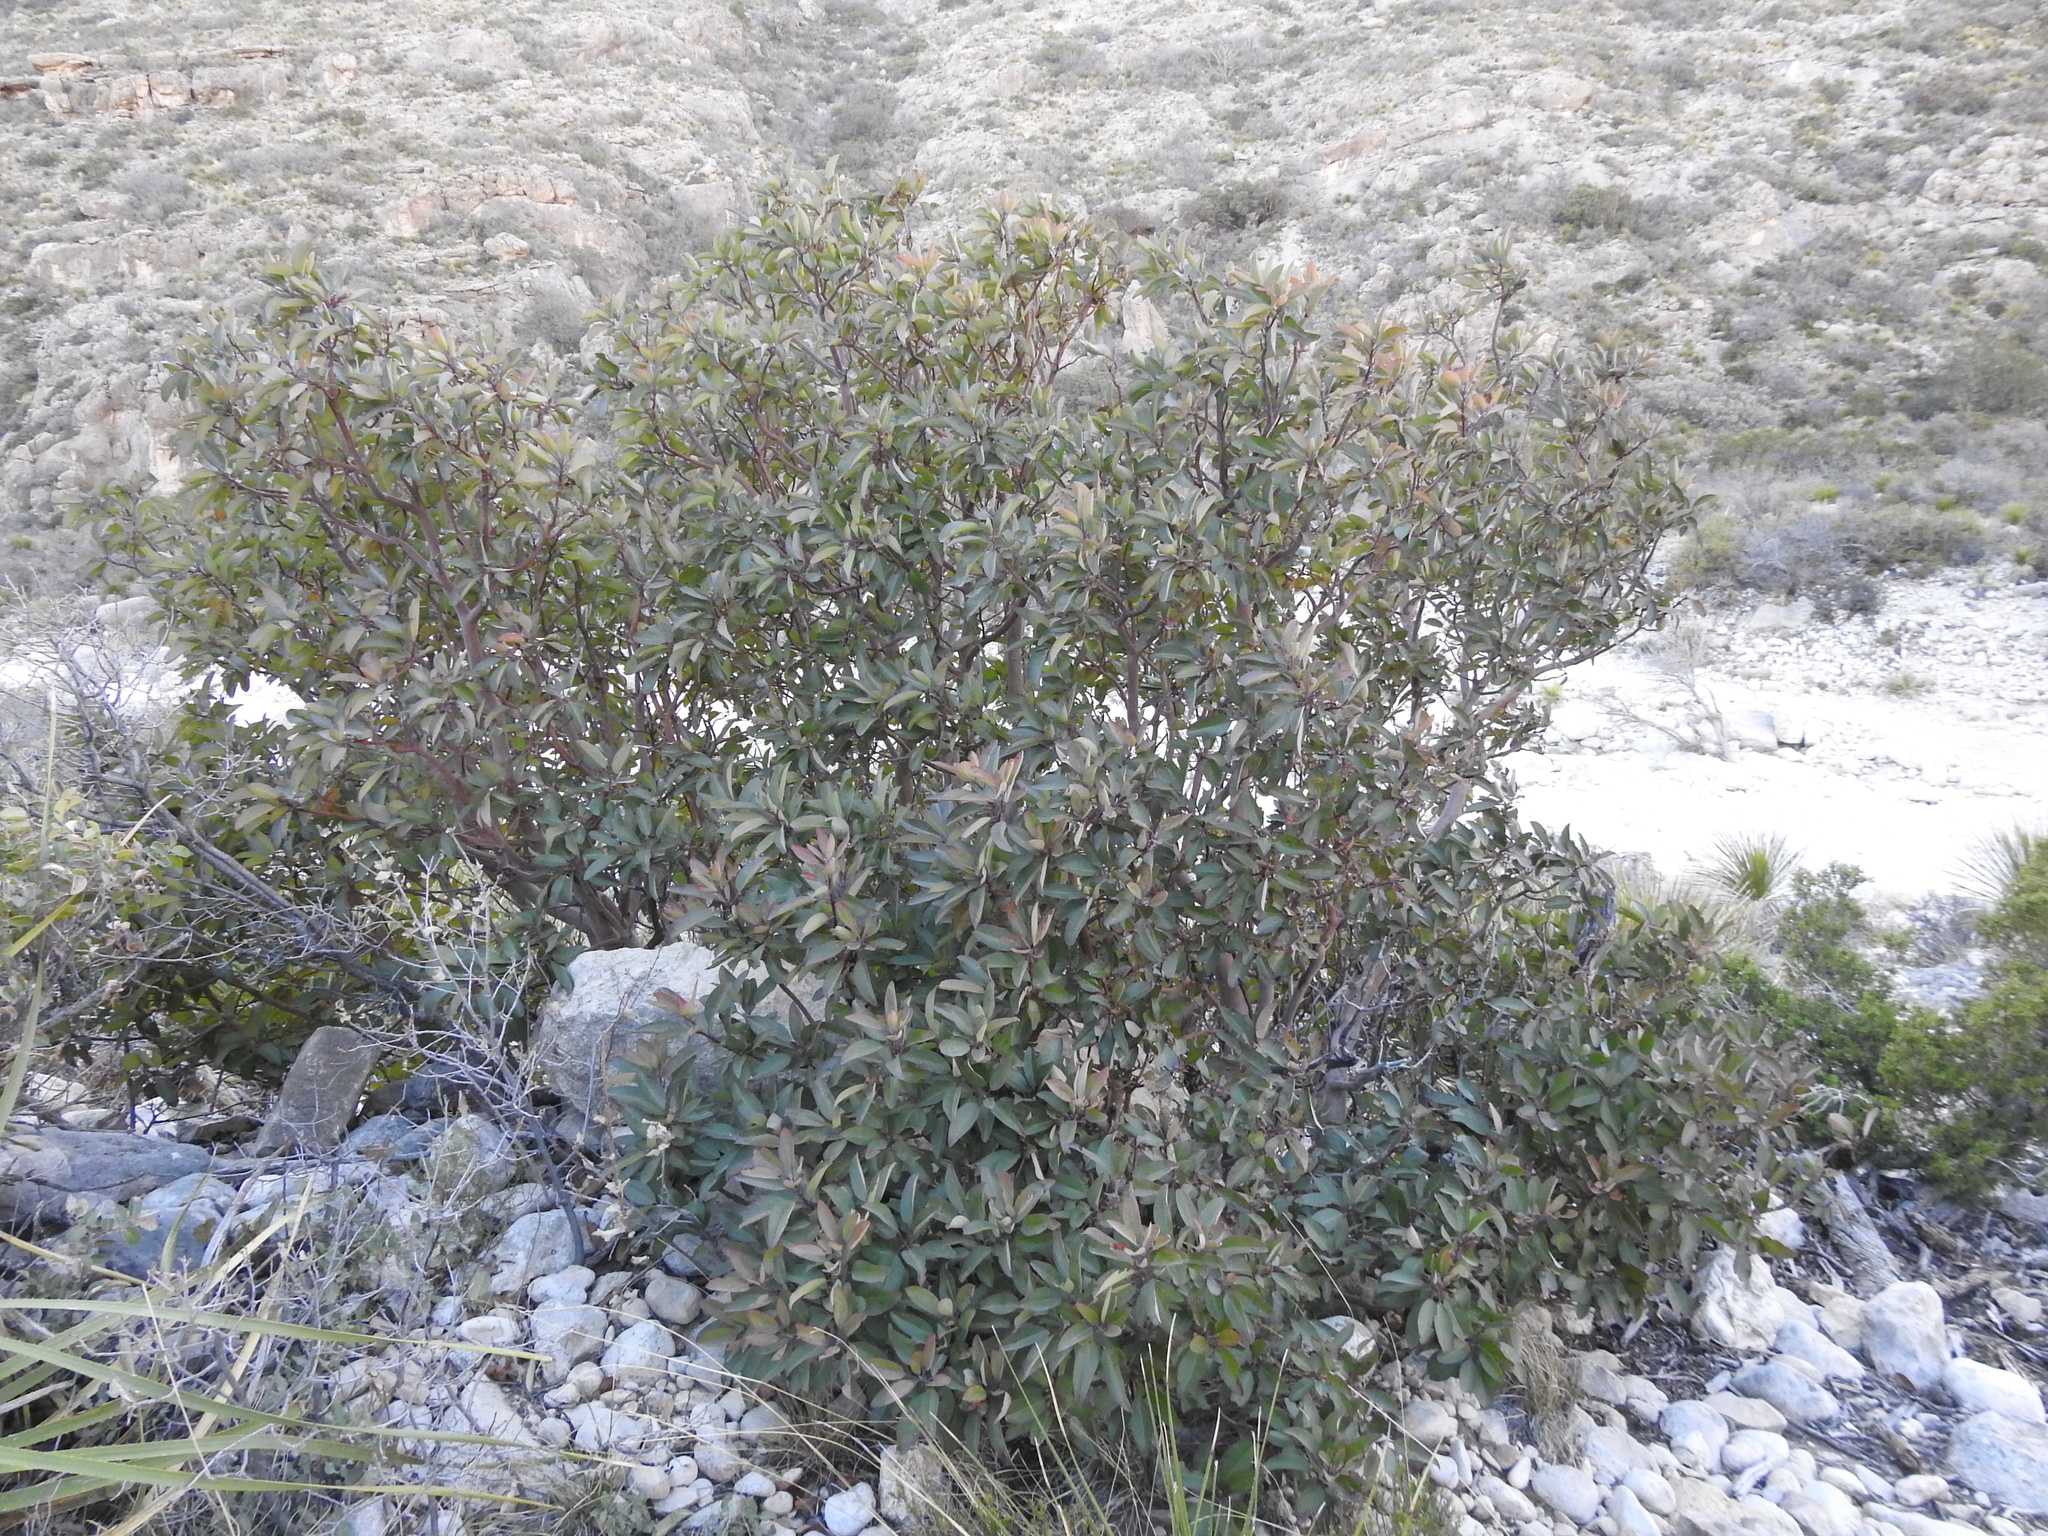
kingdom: Plantae
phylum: Tracheophyta
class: Magnoliopsida
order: Ericales
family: Ericaceae
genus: Arbutus
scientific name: Arbutus xalapensis
